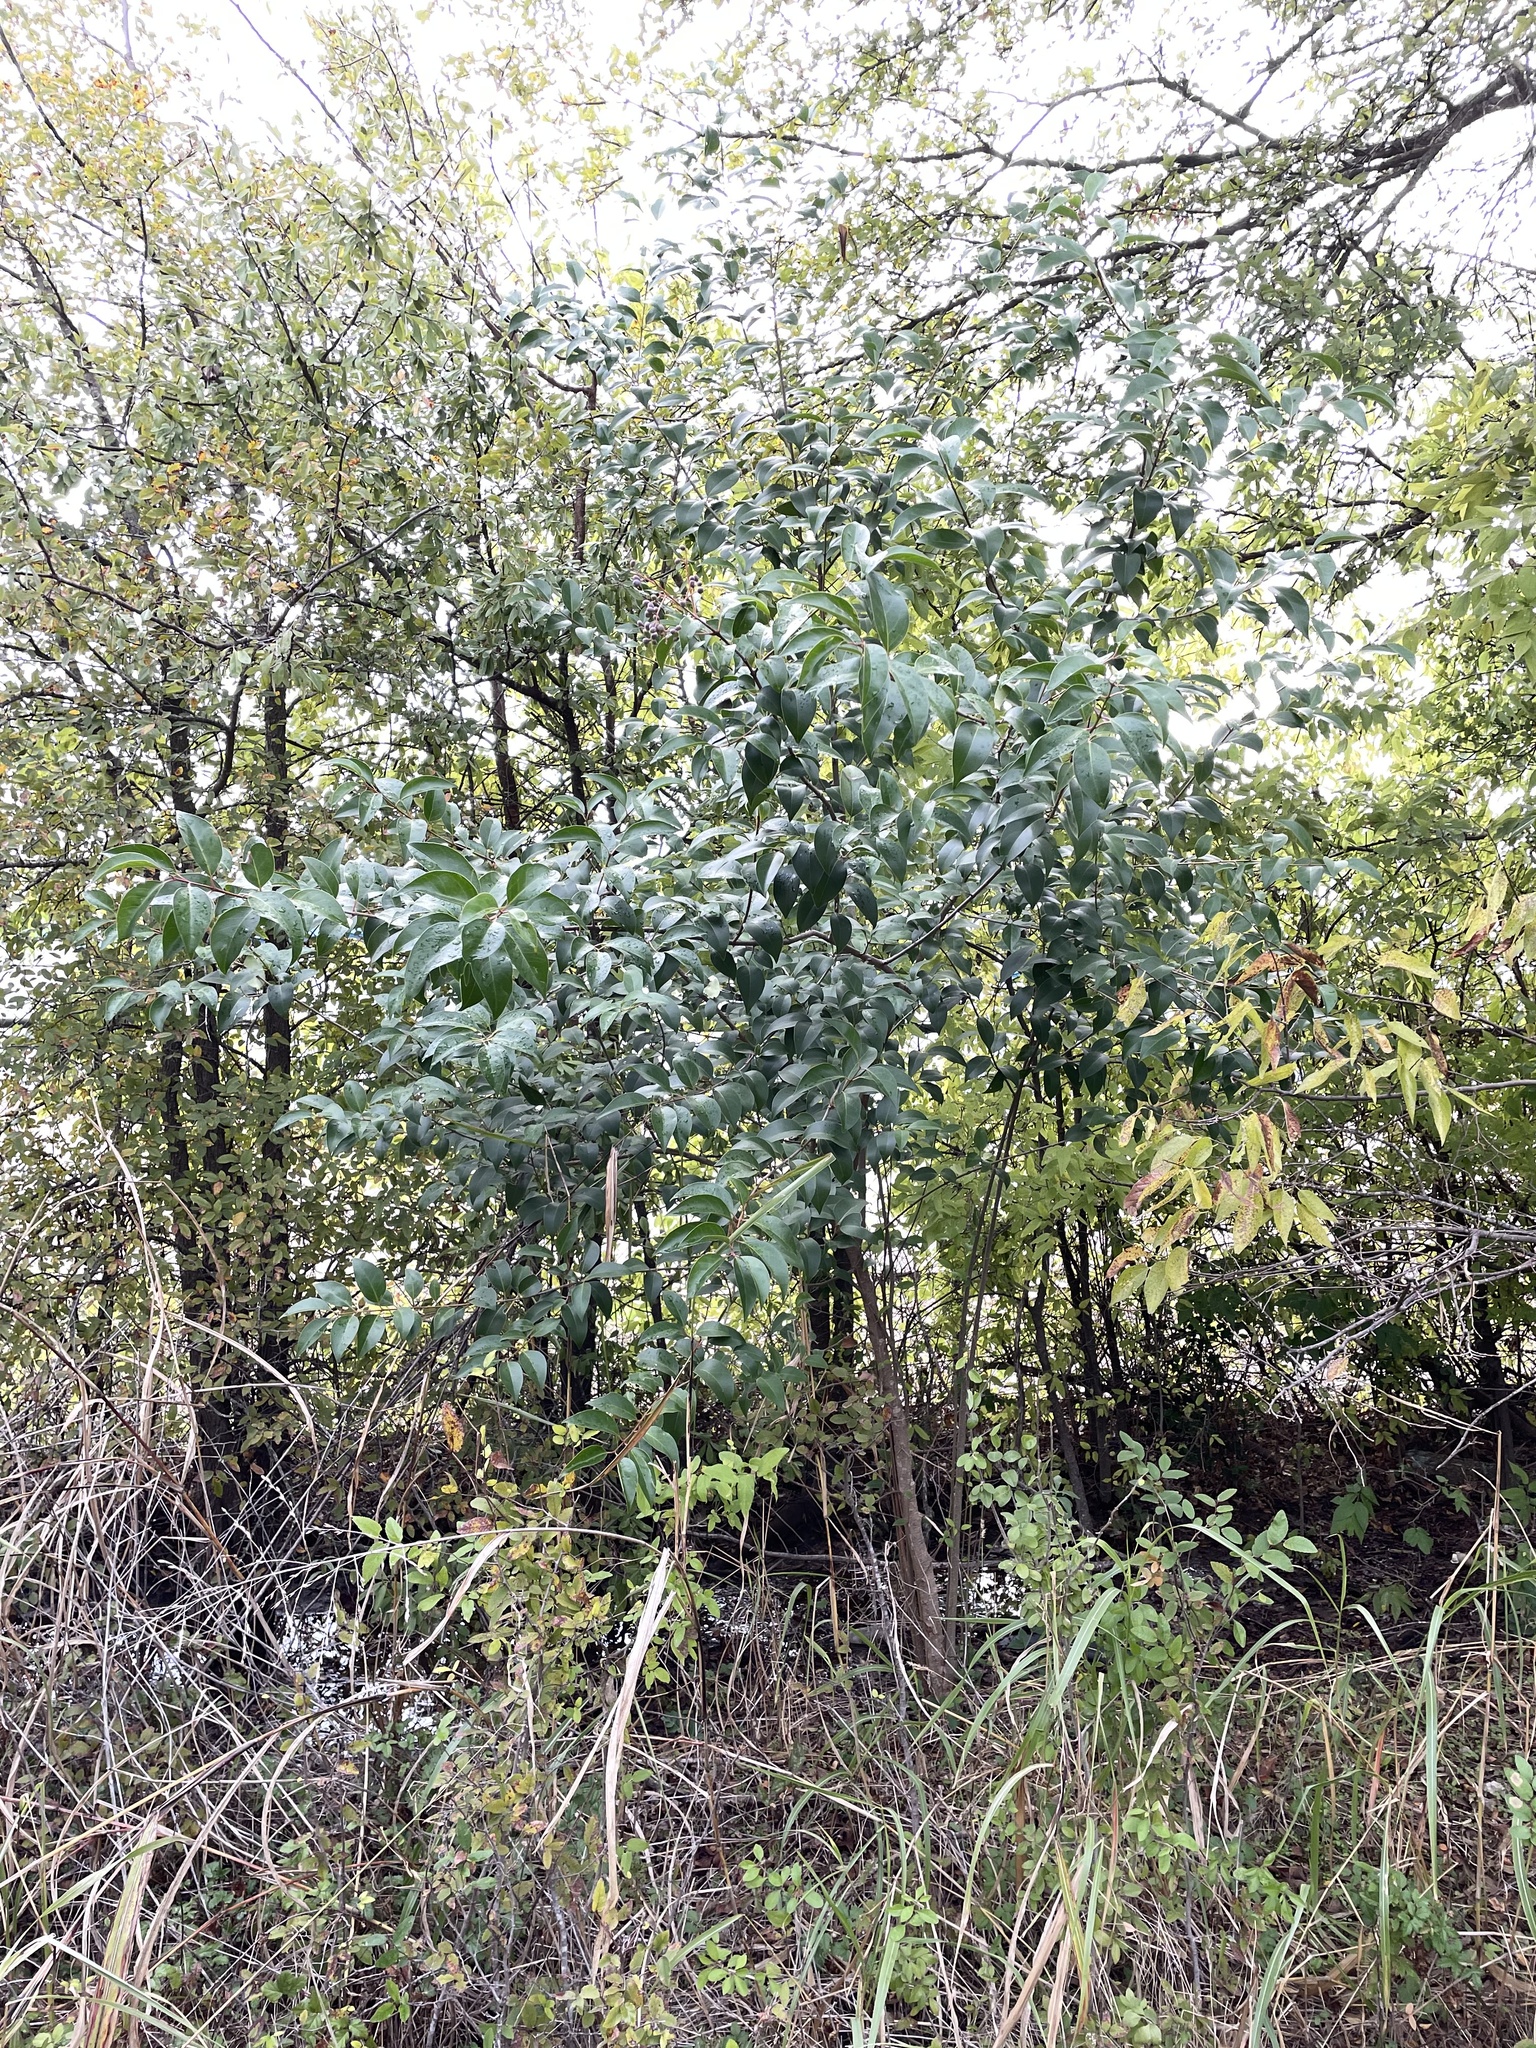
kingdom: Plantae
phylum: Tracheophyta
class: Magnoliopsida
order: Lamiales
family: Oleaceae
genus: Ligustrum
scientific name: Ligustrum lucidum
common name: Glossy privet
